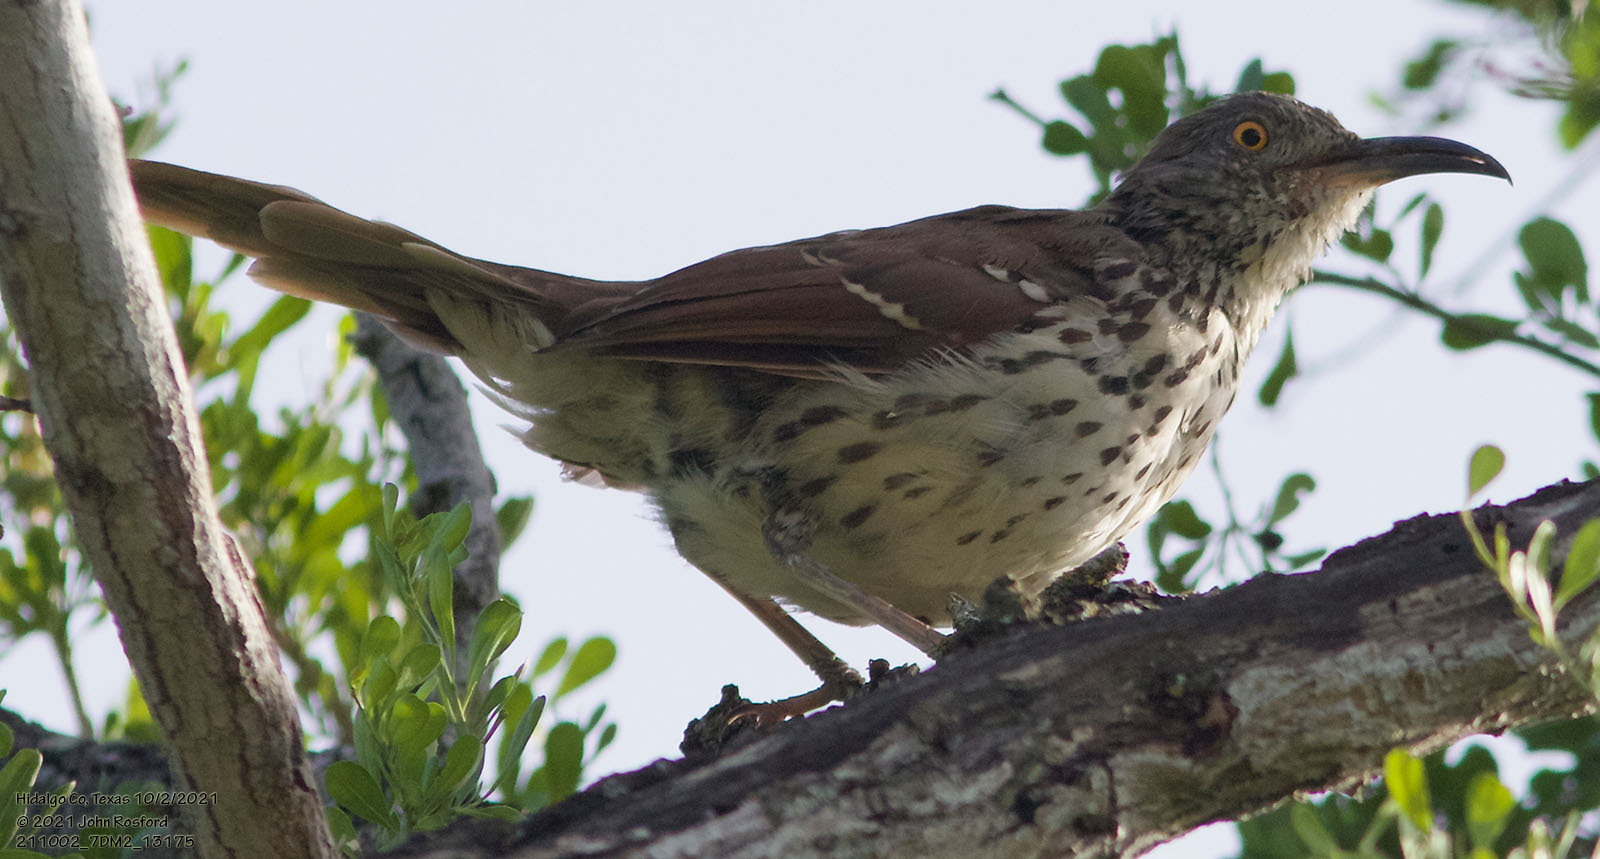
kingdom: Animalia
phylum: Chordata
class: Aves
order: Passeriformes
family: Mimidae
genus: Toxostoma
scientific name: Toxostoma longirostre
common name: Long-billed thrasher
